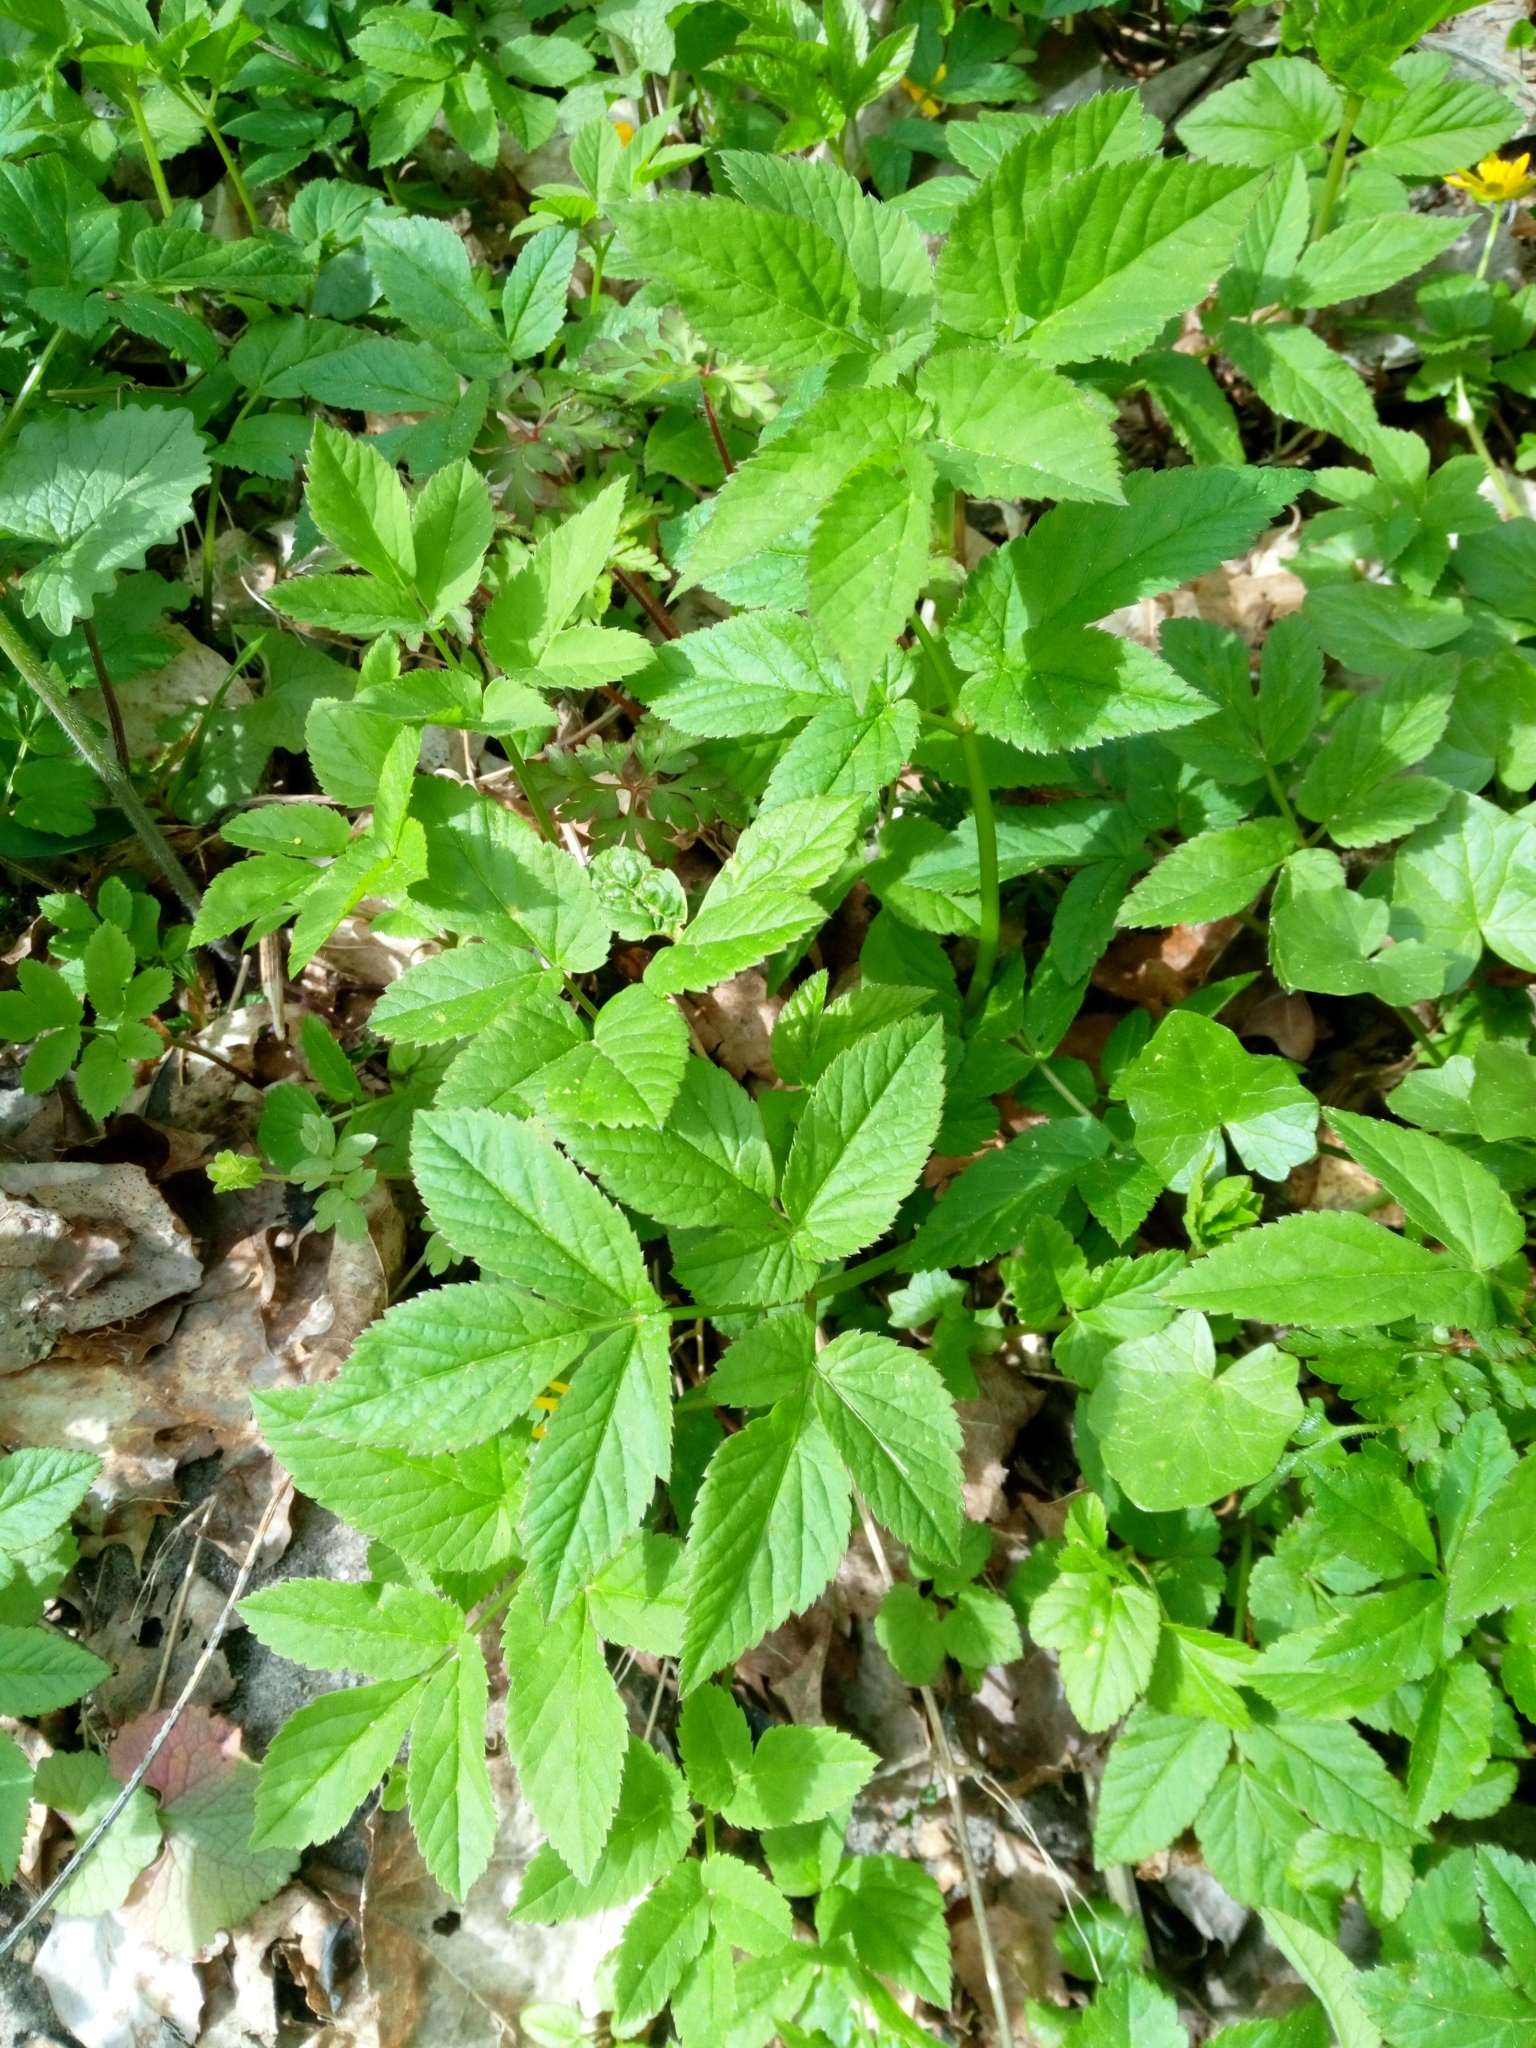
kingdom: Plantae
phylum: Tracheophyta
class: Magnoliopsida
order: Apiales
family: Apiaceae
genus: Aegopodium
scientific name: Aegopodium podagraria
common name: Ground-elder
